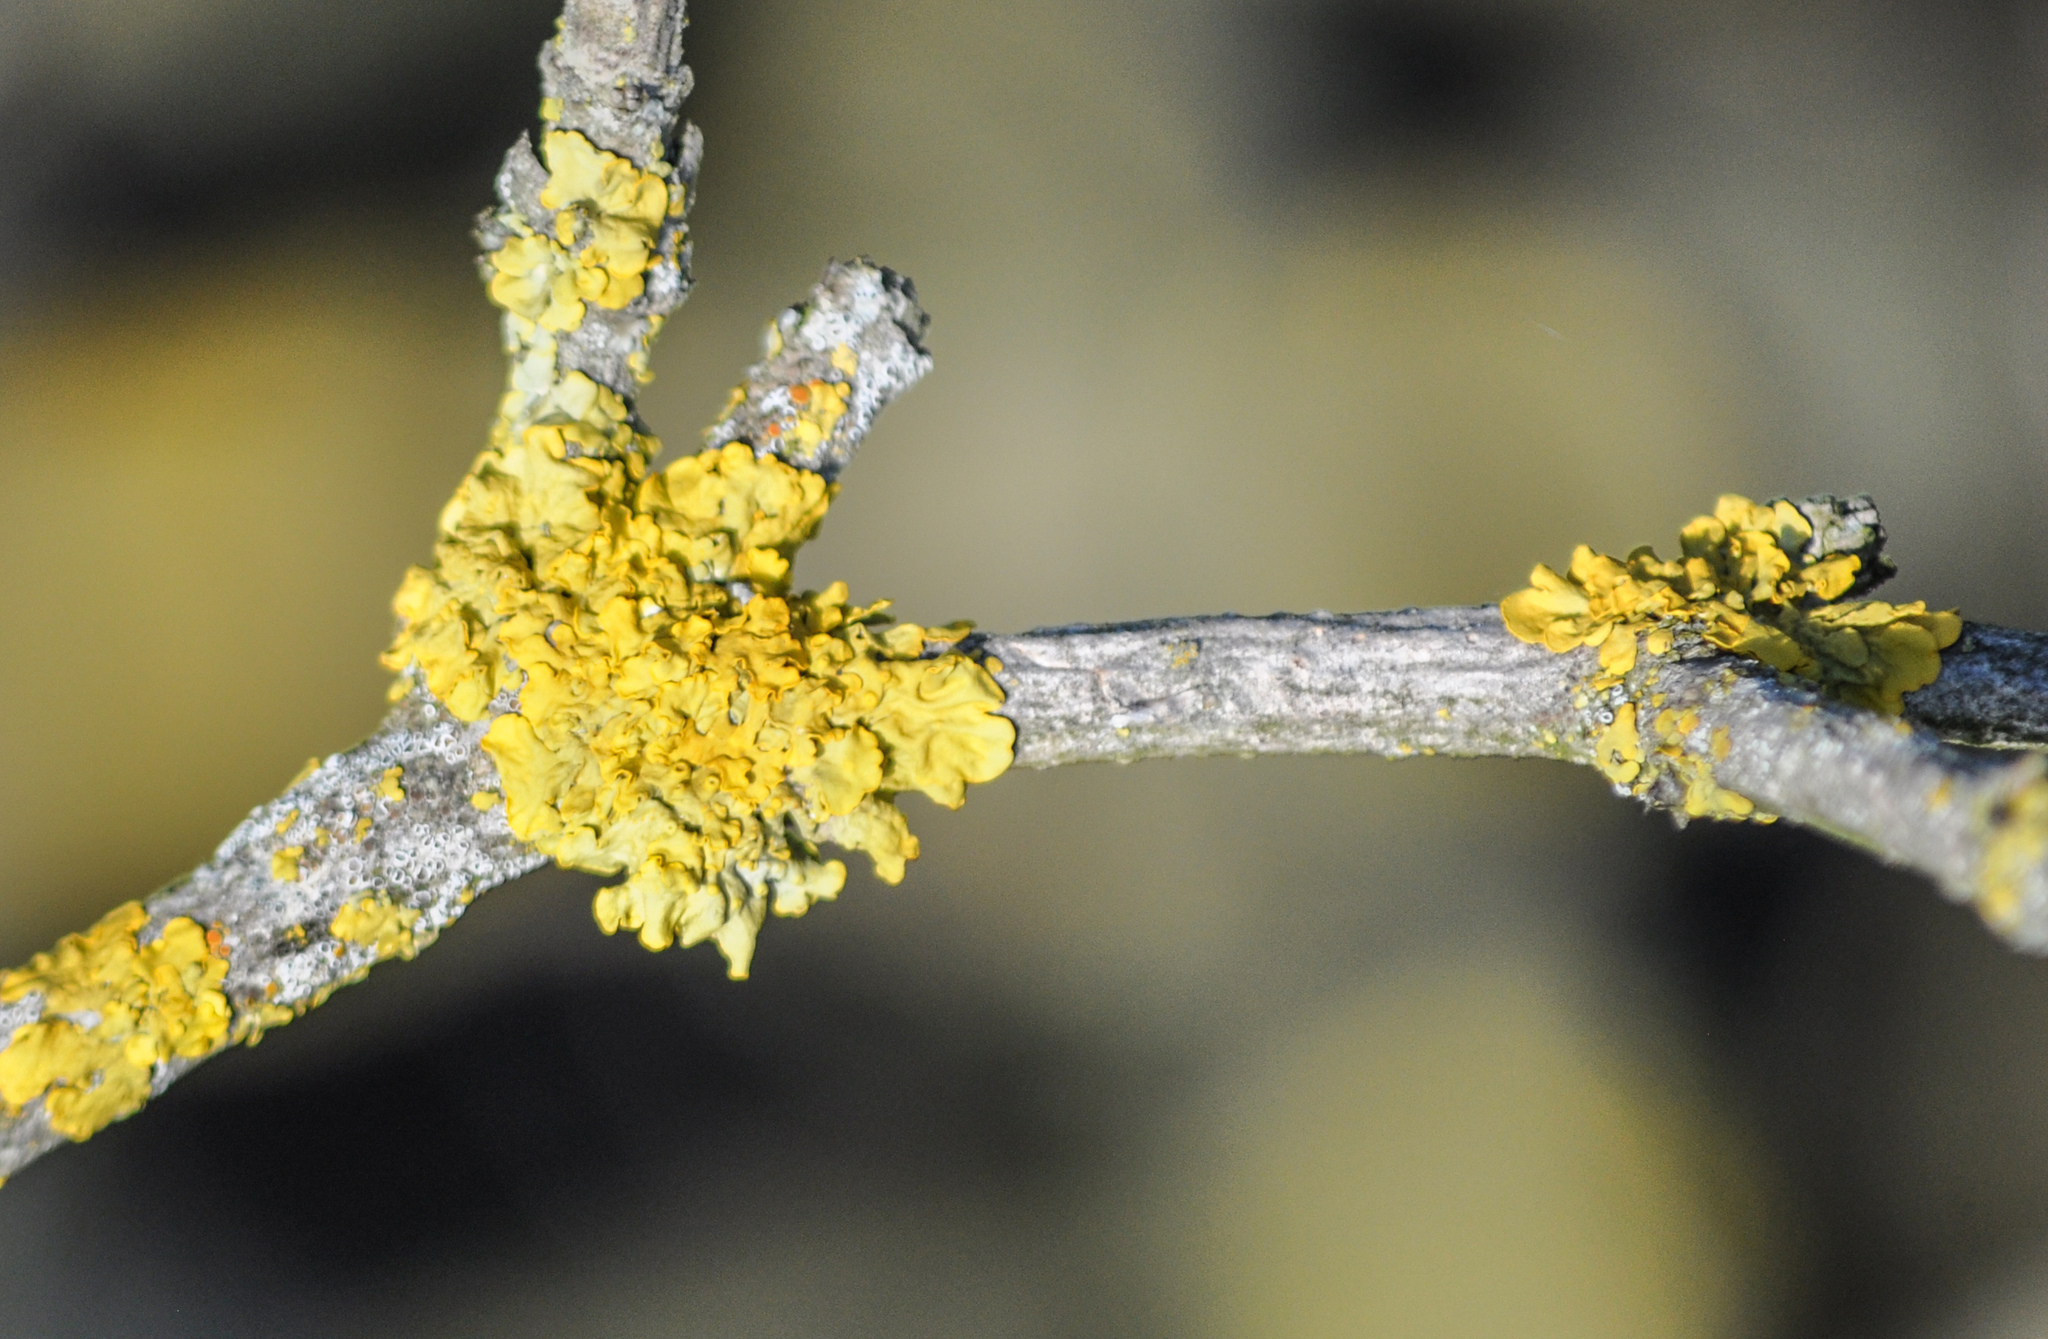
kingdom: Fungi
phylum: Ascomycota
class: Lecanoromycetes
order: Teloschistales
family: Teloschistaceae
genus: Xanthoria
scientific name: Xanthoria parietina
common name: Common orange lichen
